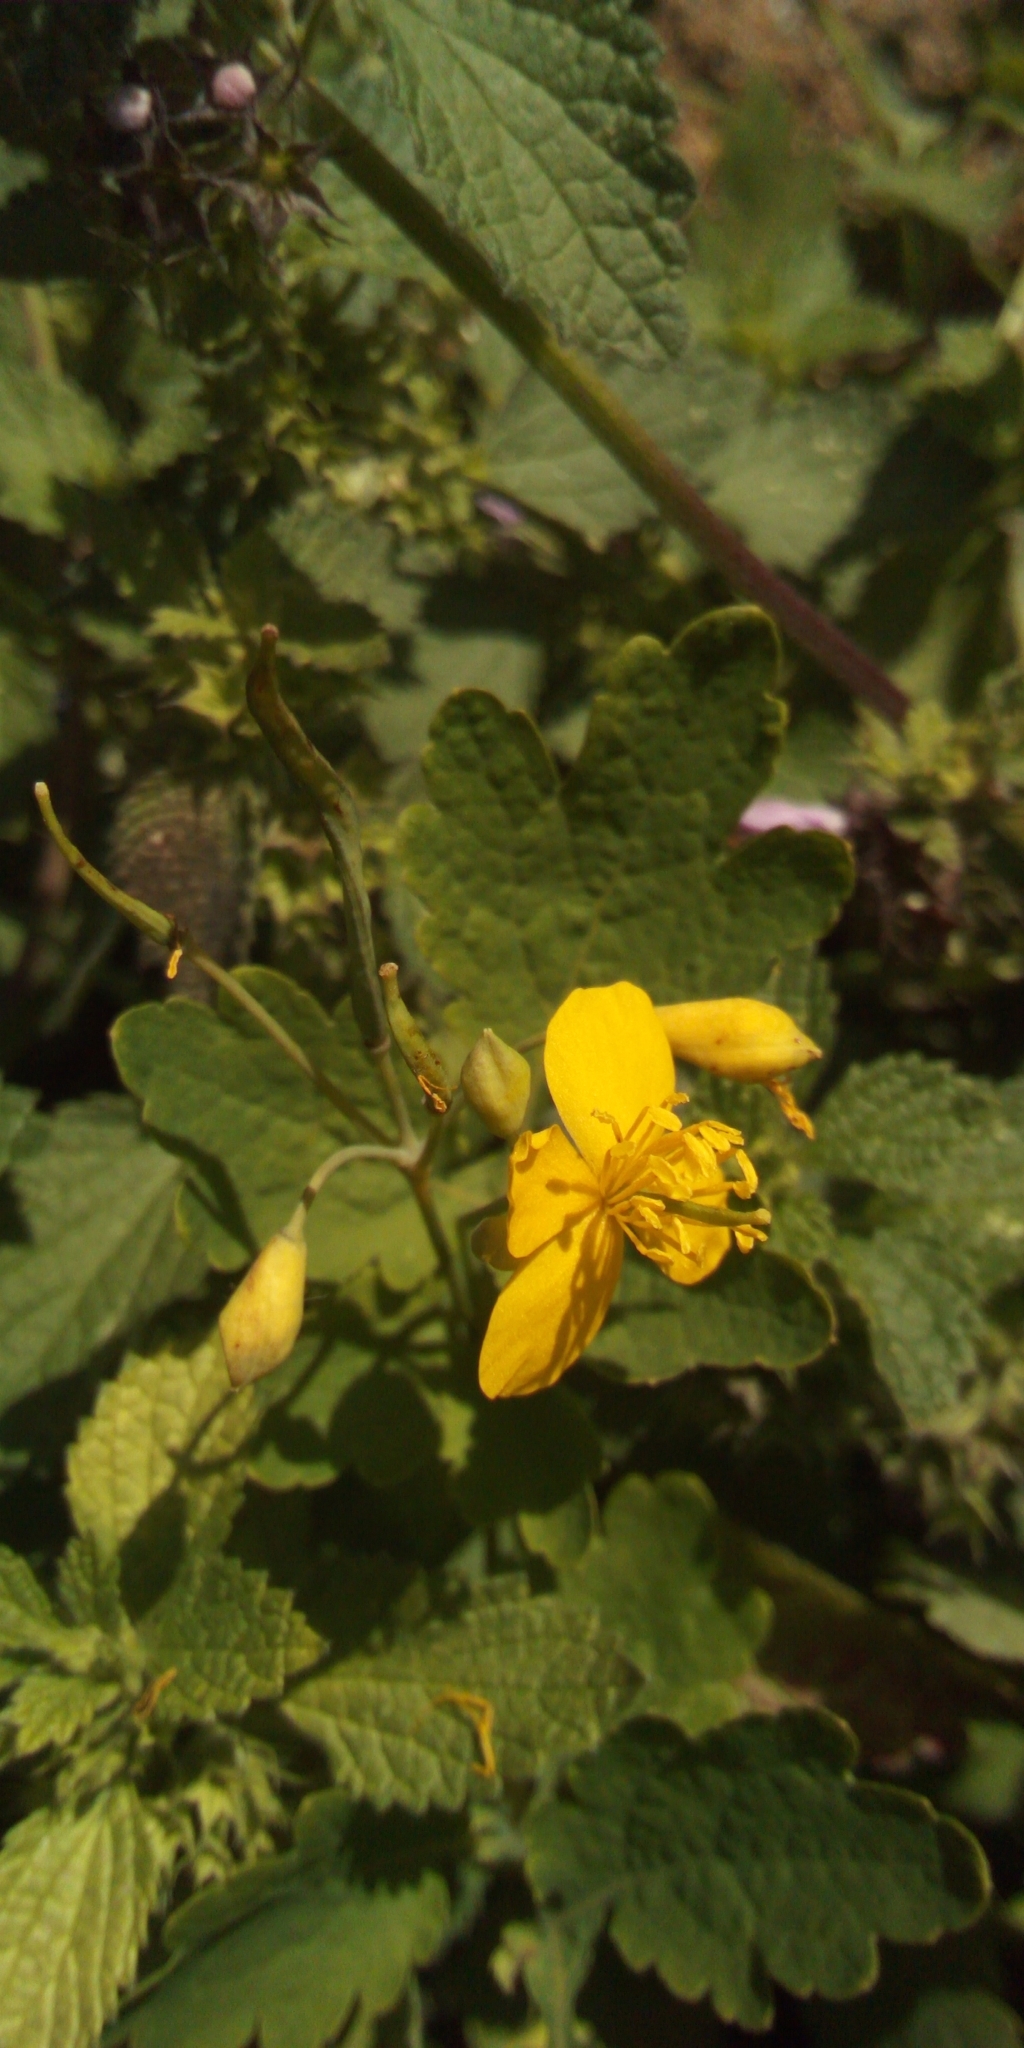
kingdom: Plantae
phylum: Tracheophyta
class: Magnoliopsida
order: Ranunculales
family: Papaveraceae
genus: Chelidonium
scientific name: Chelidonium majus
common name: Greater celandine
